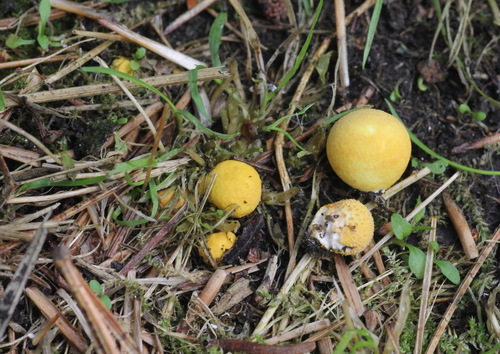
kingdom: Fungi
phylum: Basidiomycota
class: Agaricomycetes
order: Agaricales
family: Lycoperdaceae
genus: Bovista
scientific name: Bovista aestivalis
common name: Deceiving bovist
